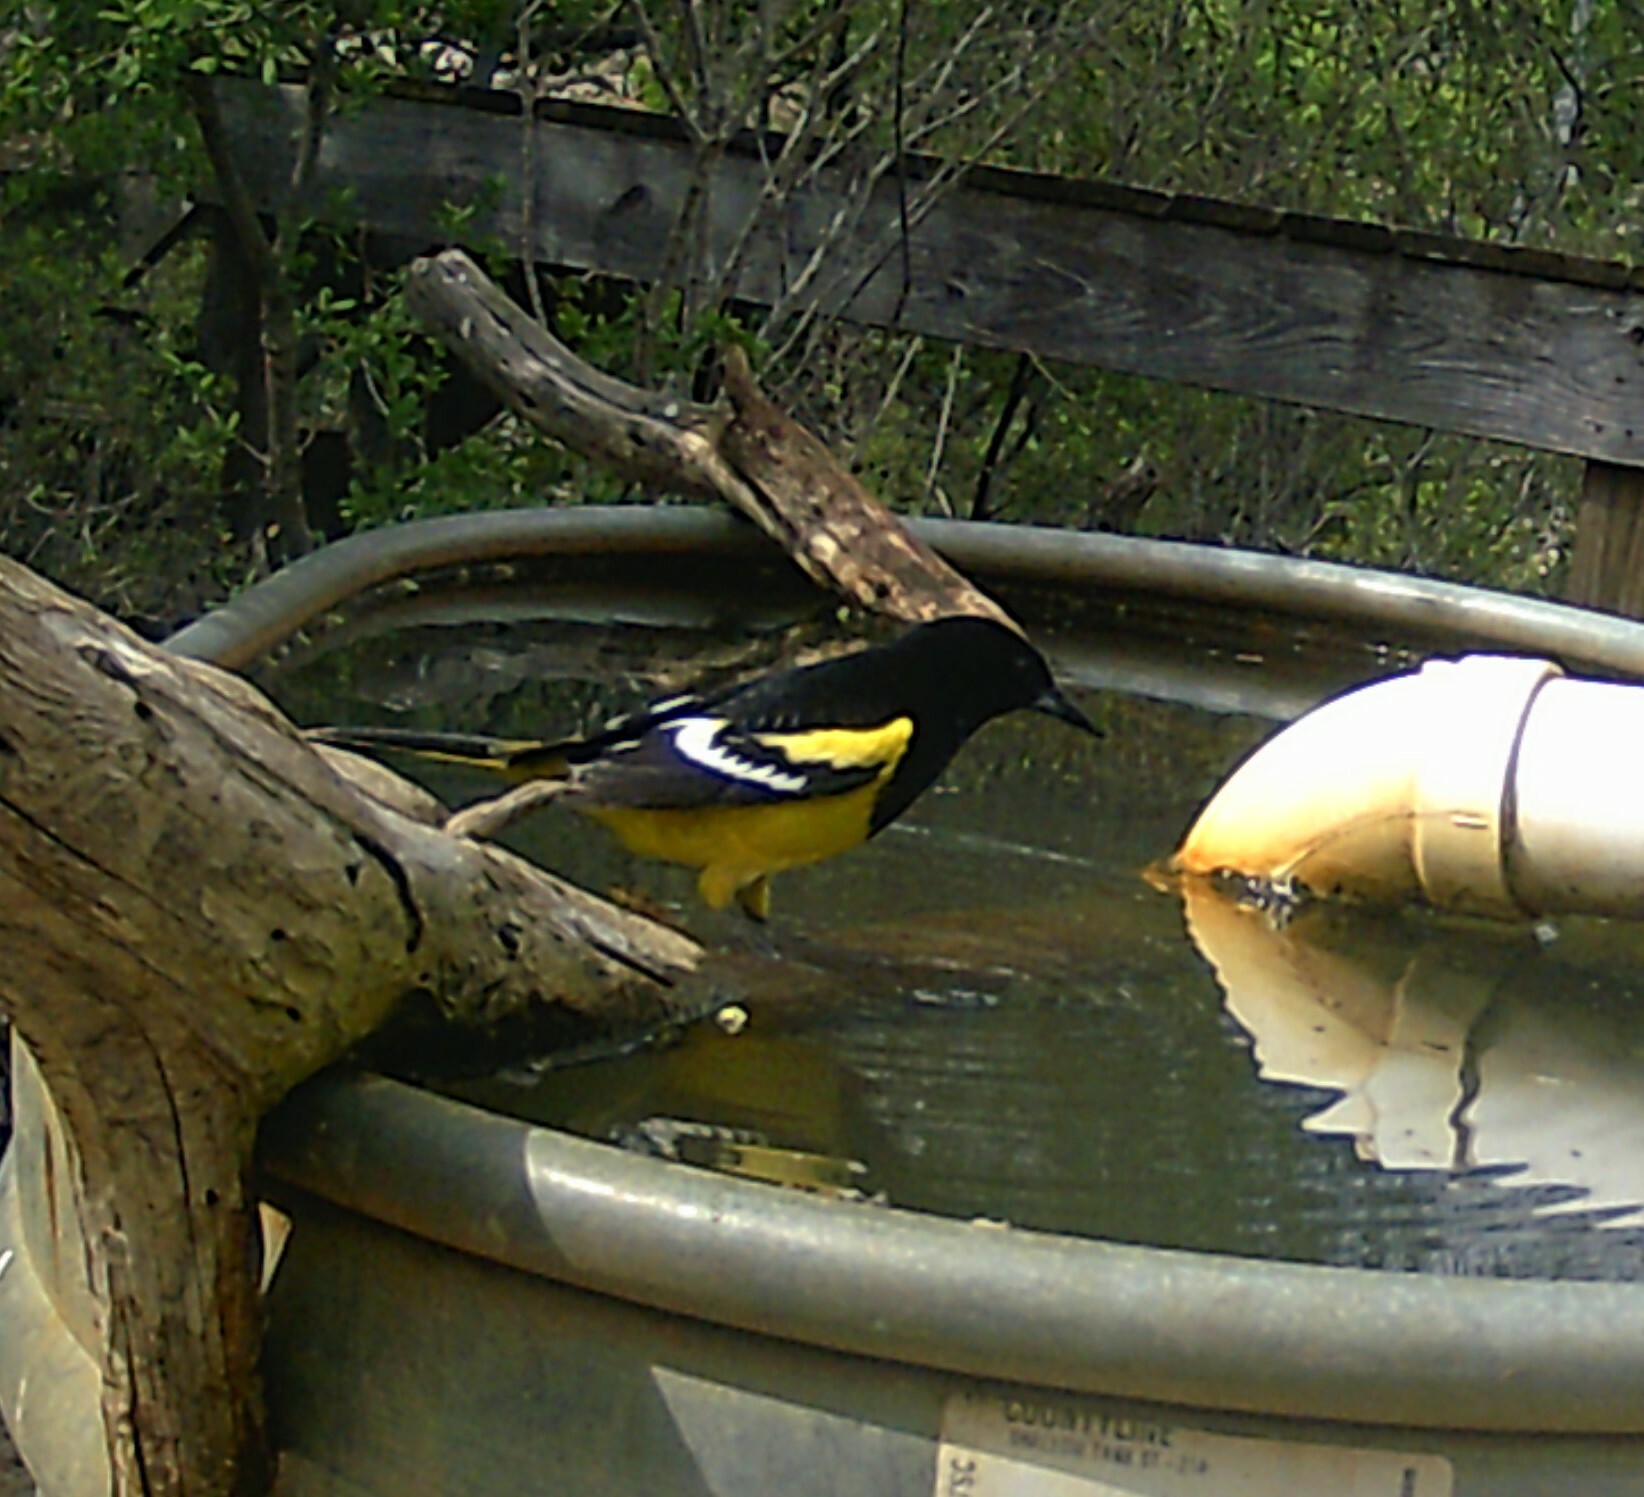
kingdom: Animalia
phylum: Chordata
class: Aves
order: Passeriformes
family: Icteridae
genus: Icterus
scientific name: Icterus parisorum
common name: Scott's oriole
